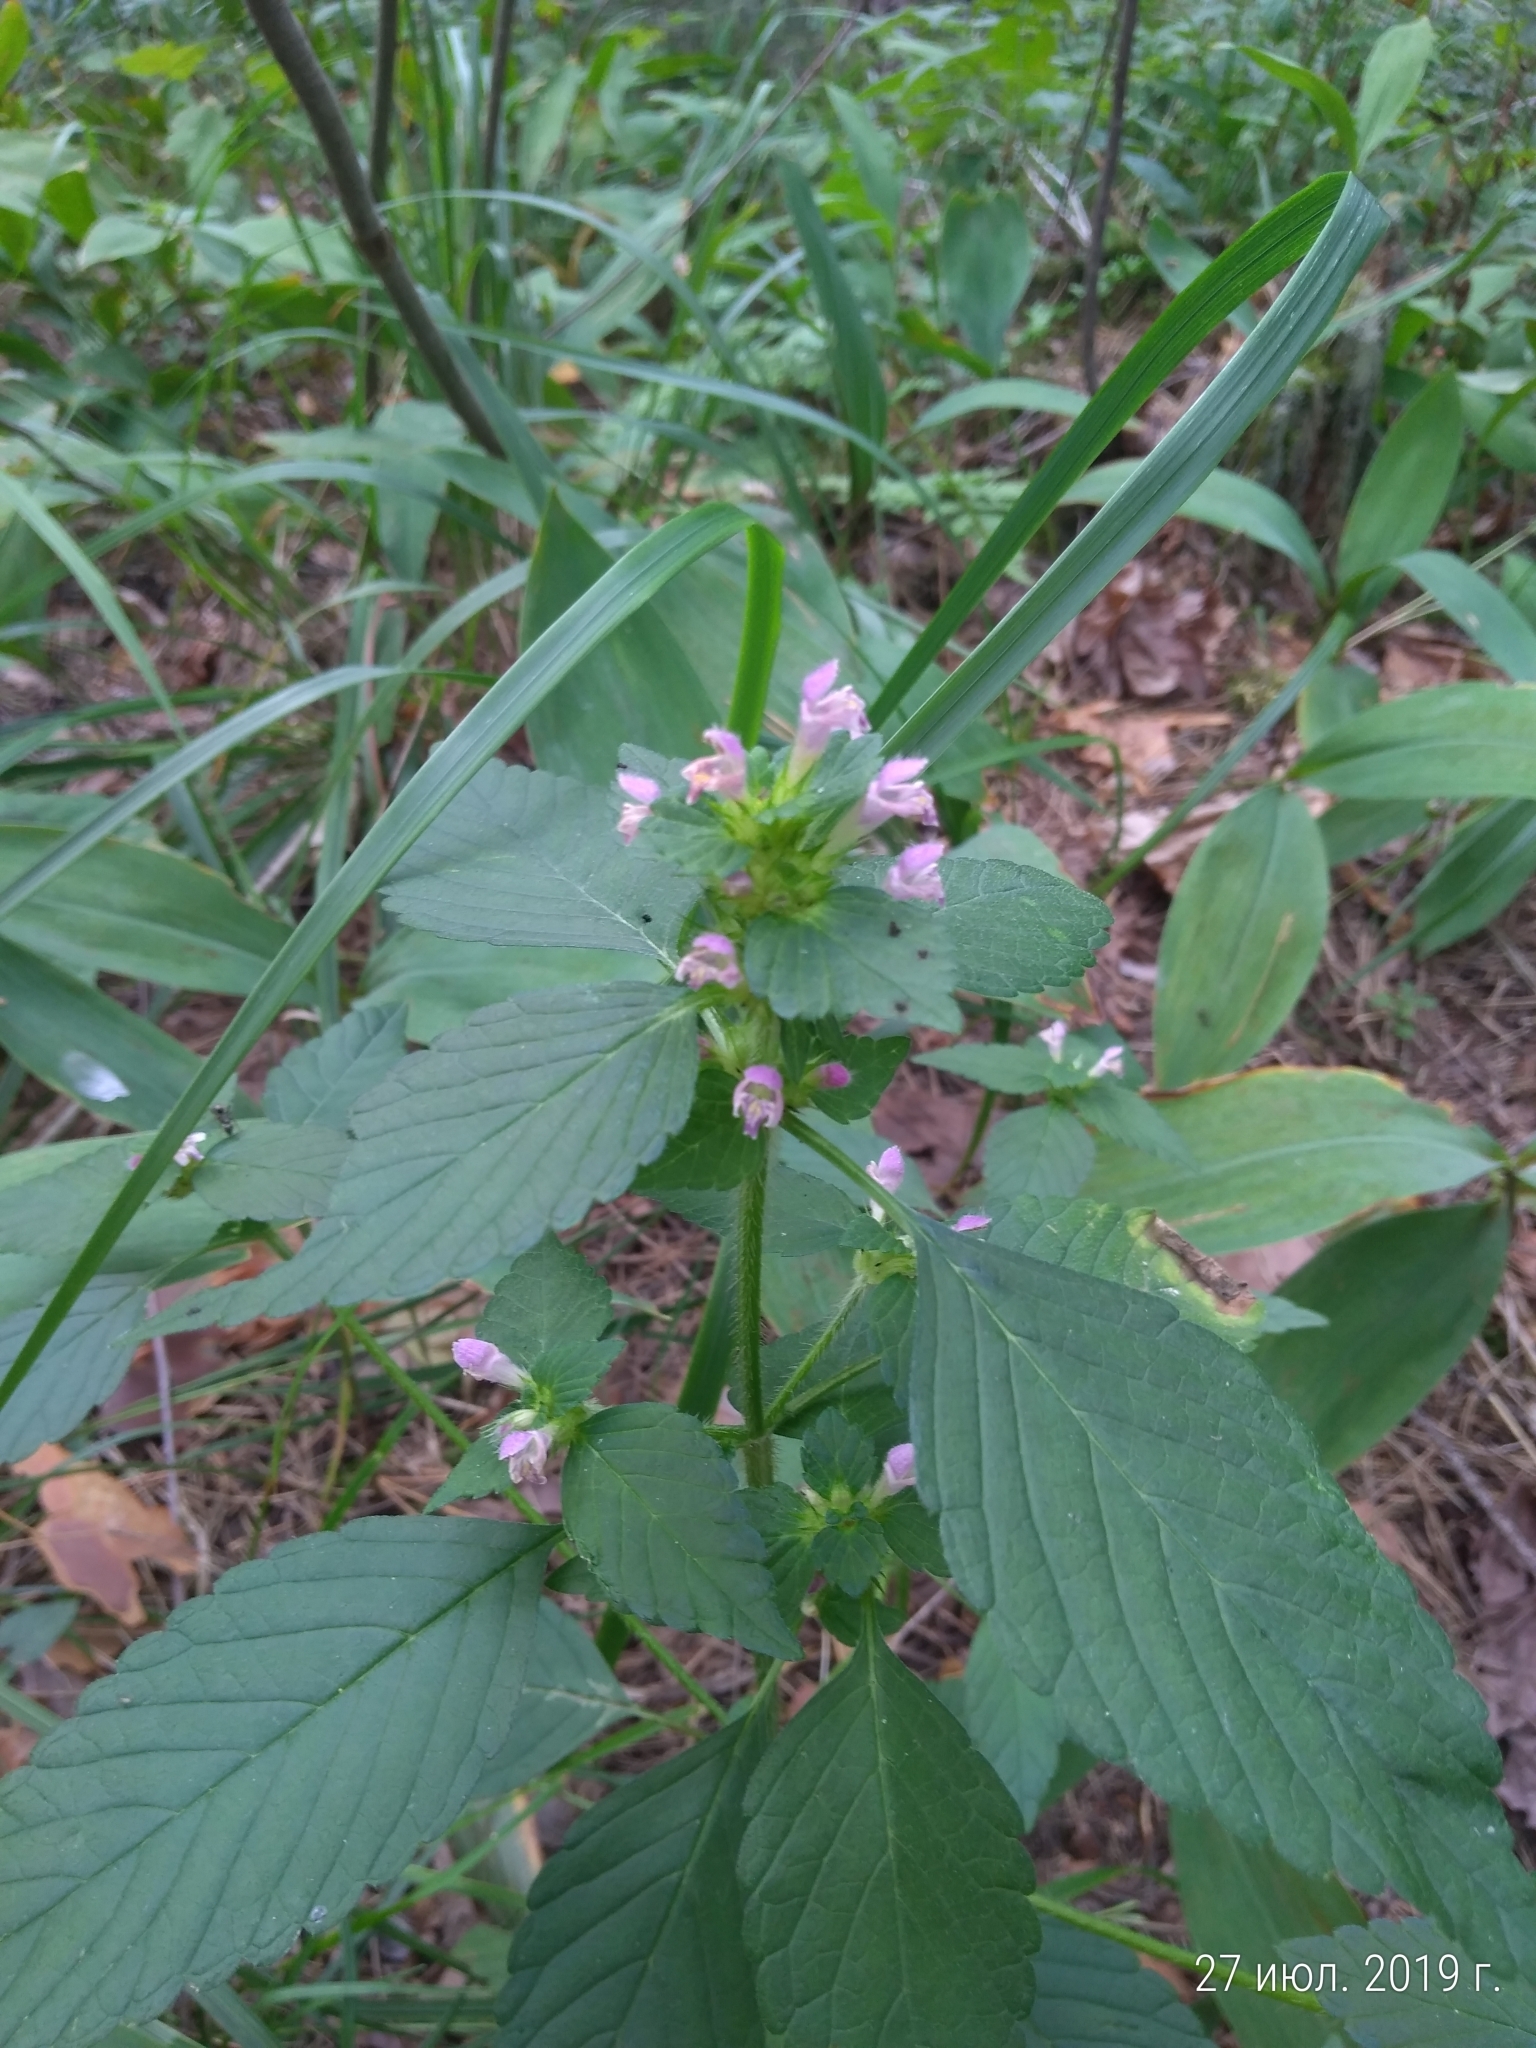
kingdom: Plantae
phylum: Tracheophyta
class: Magnoliopsida
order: Lamiales
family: Lamiaceae
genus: Galeopsis
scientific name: Galeopsis bifida
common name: Bifid hemp-nettle
